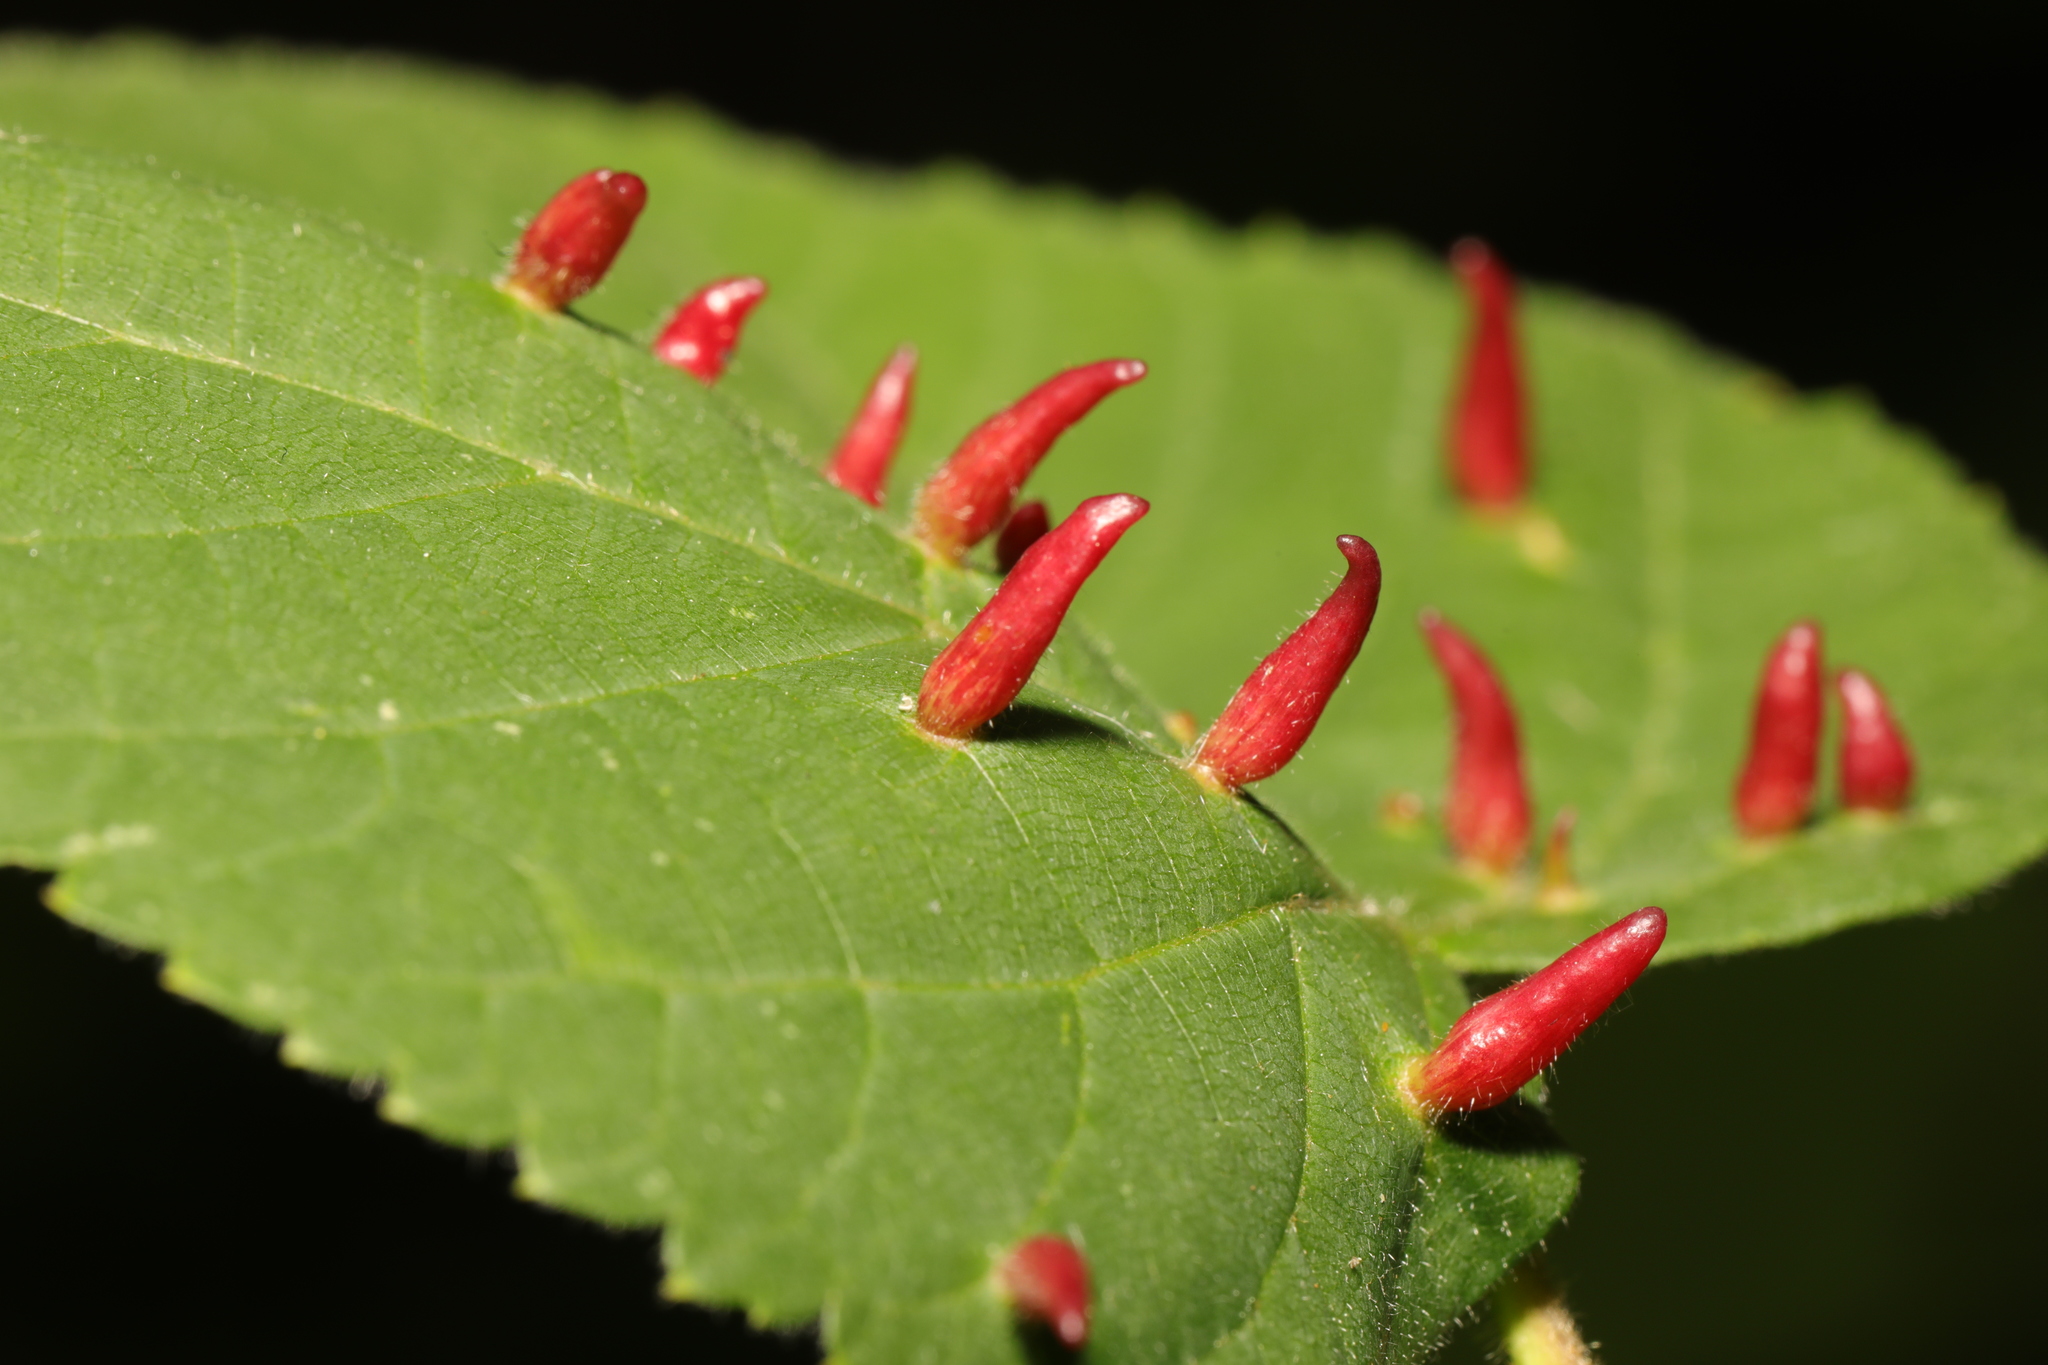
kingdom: Animalia
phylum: Arthropoda
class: Arachnida
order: Trombidiformes
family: Eriophyidae
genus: Eriophyes
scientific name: Eriophyes tiliae
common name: Red nail gall mite
